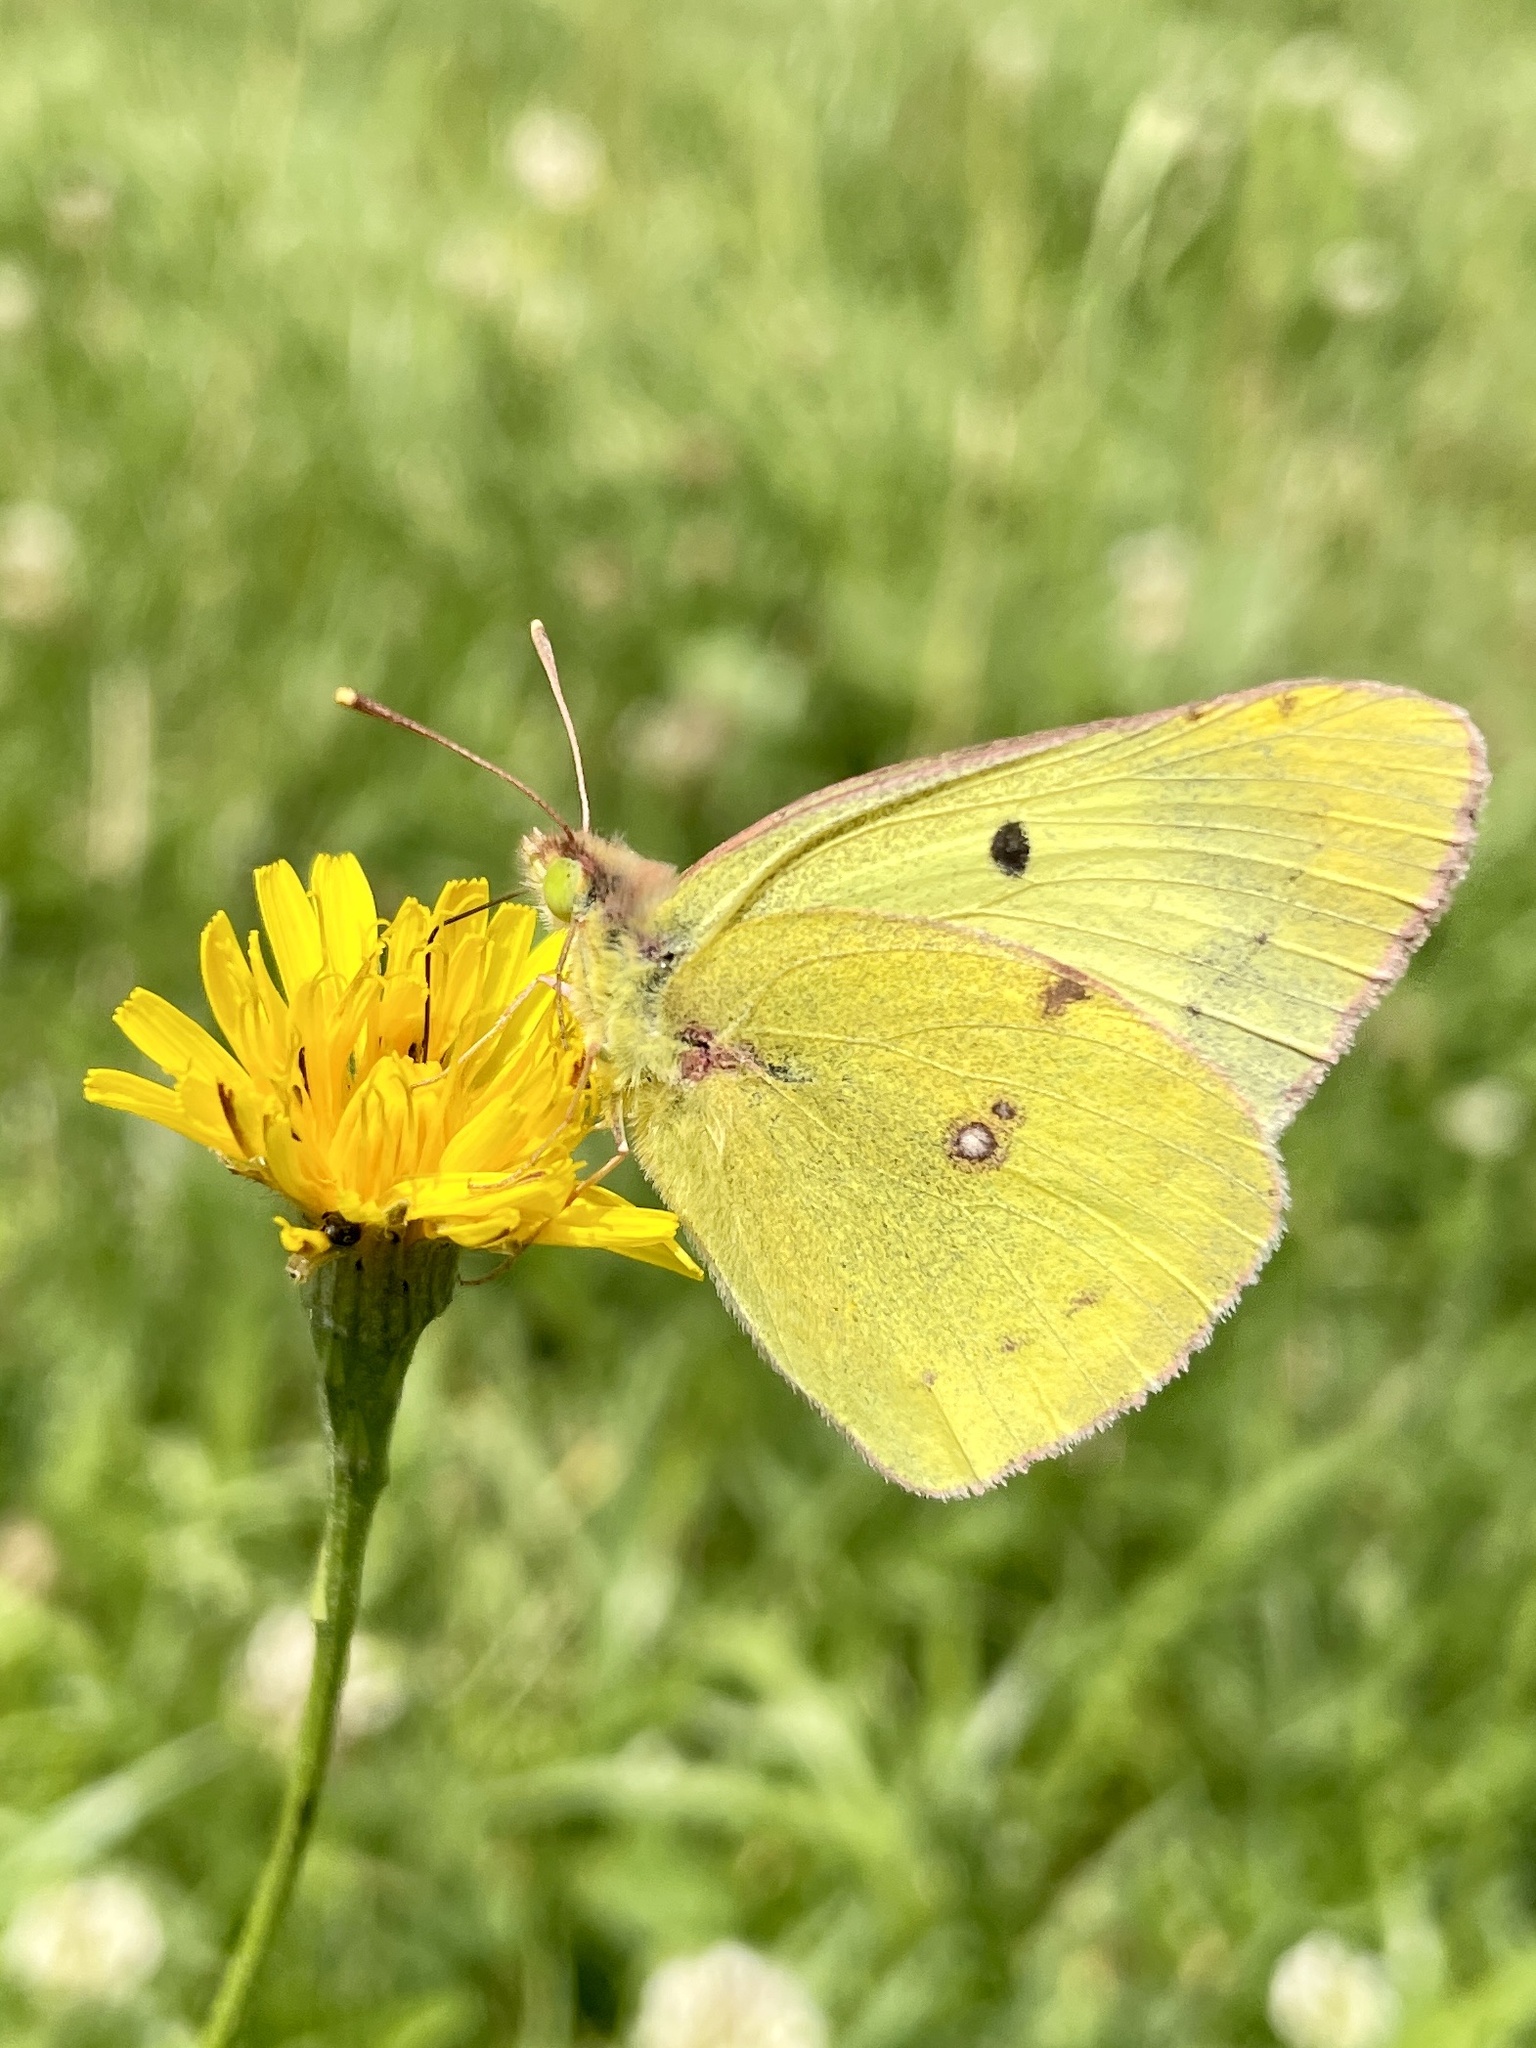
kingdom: Animalia
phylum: Arthropoda
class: Insecta
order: Lepidoptera
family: Pieridae
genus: Colias
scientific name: Colias hyale
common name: Pale clouded yellow
